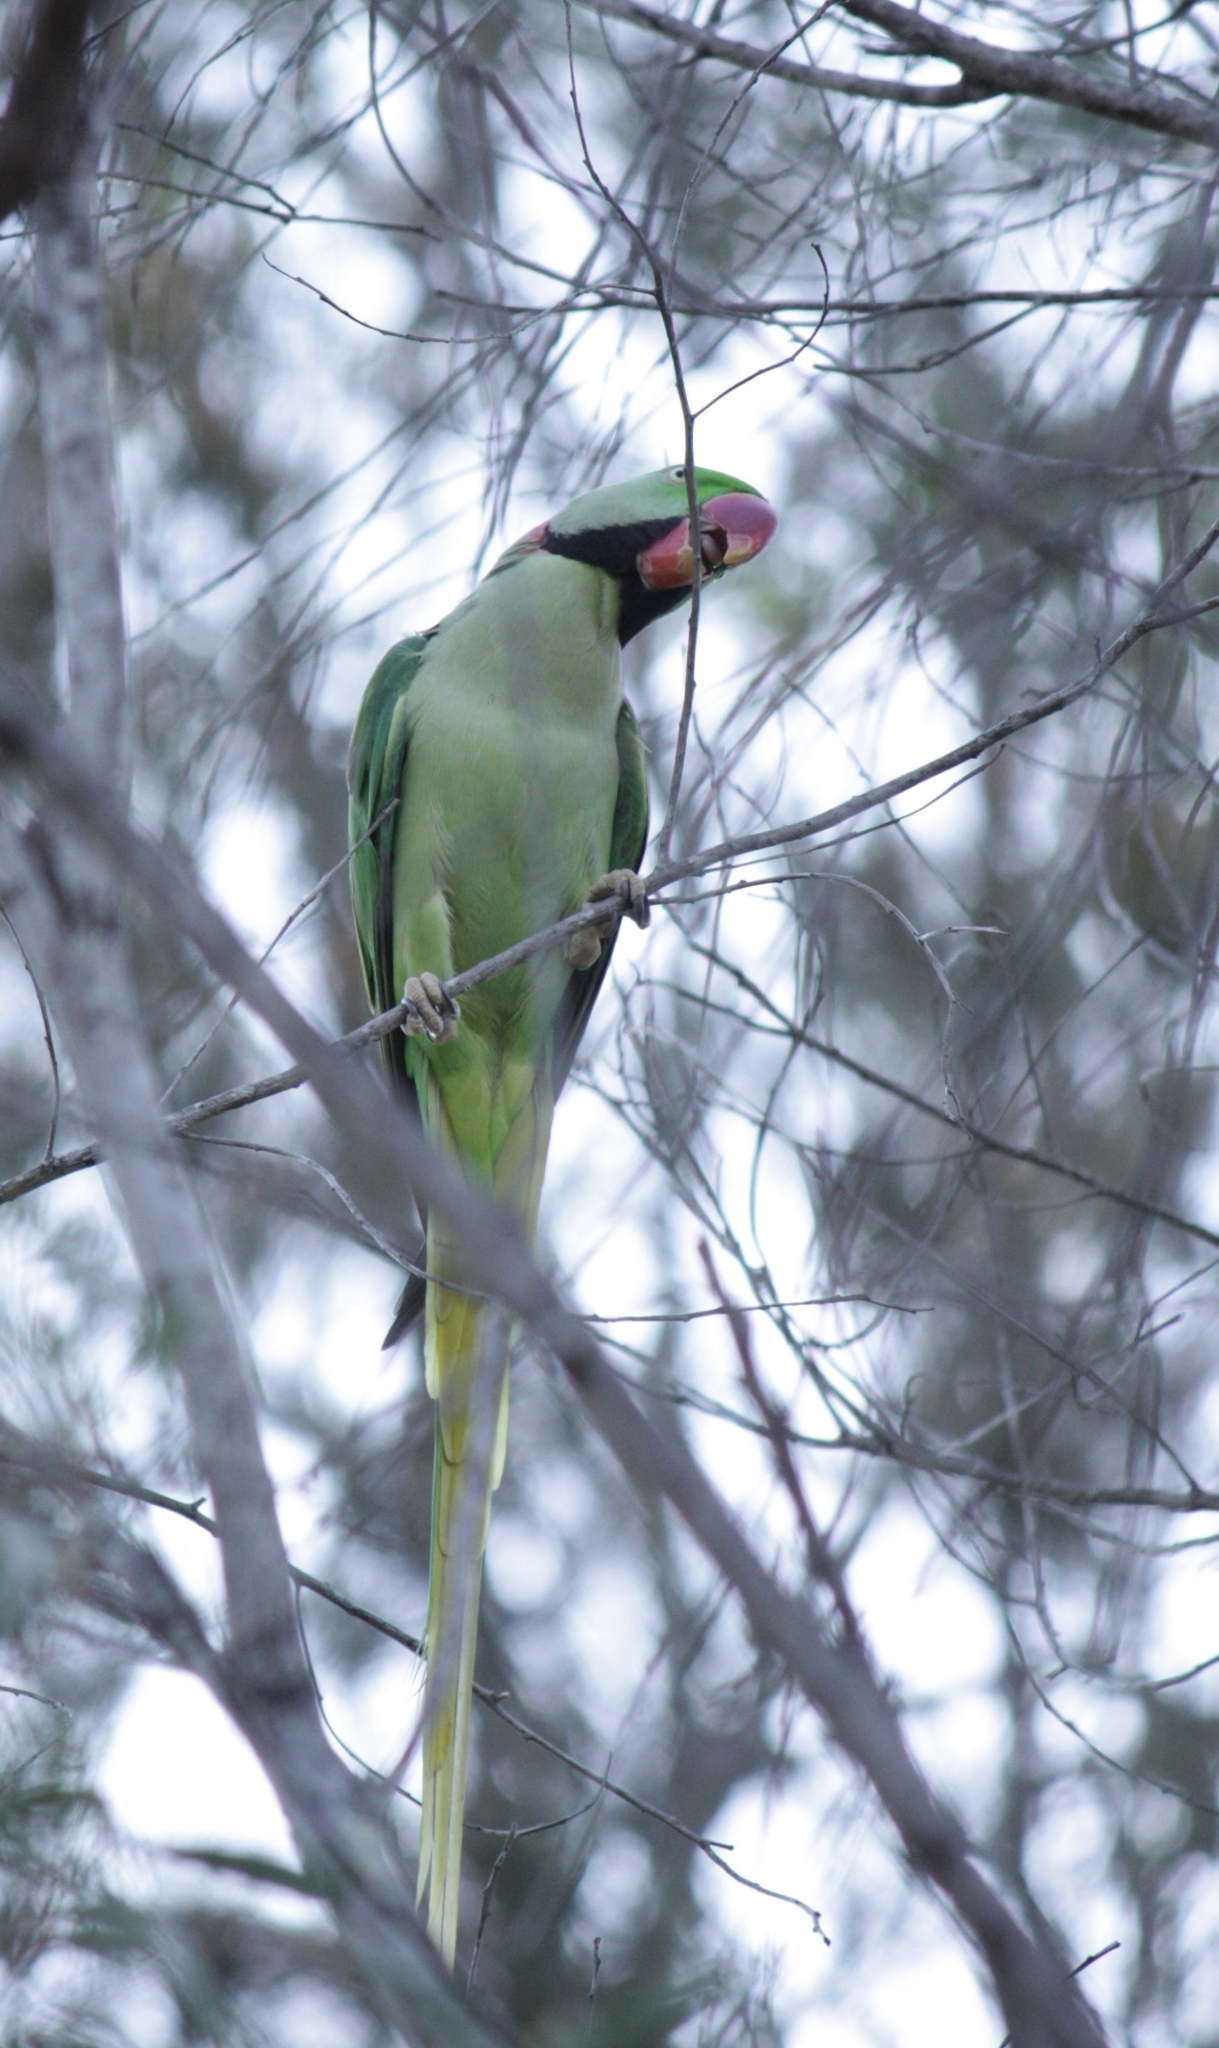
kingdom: Animalia
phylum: Chordata
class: Aves
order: Psittaciformes
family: Psittacidae
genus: Psittacula
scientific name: Psittacula eupatria
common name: Alexandrine parakeet
